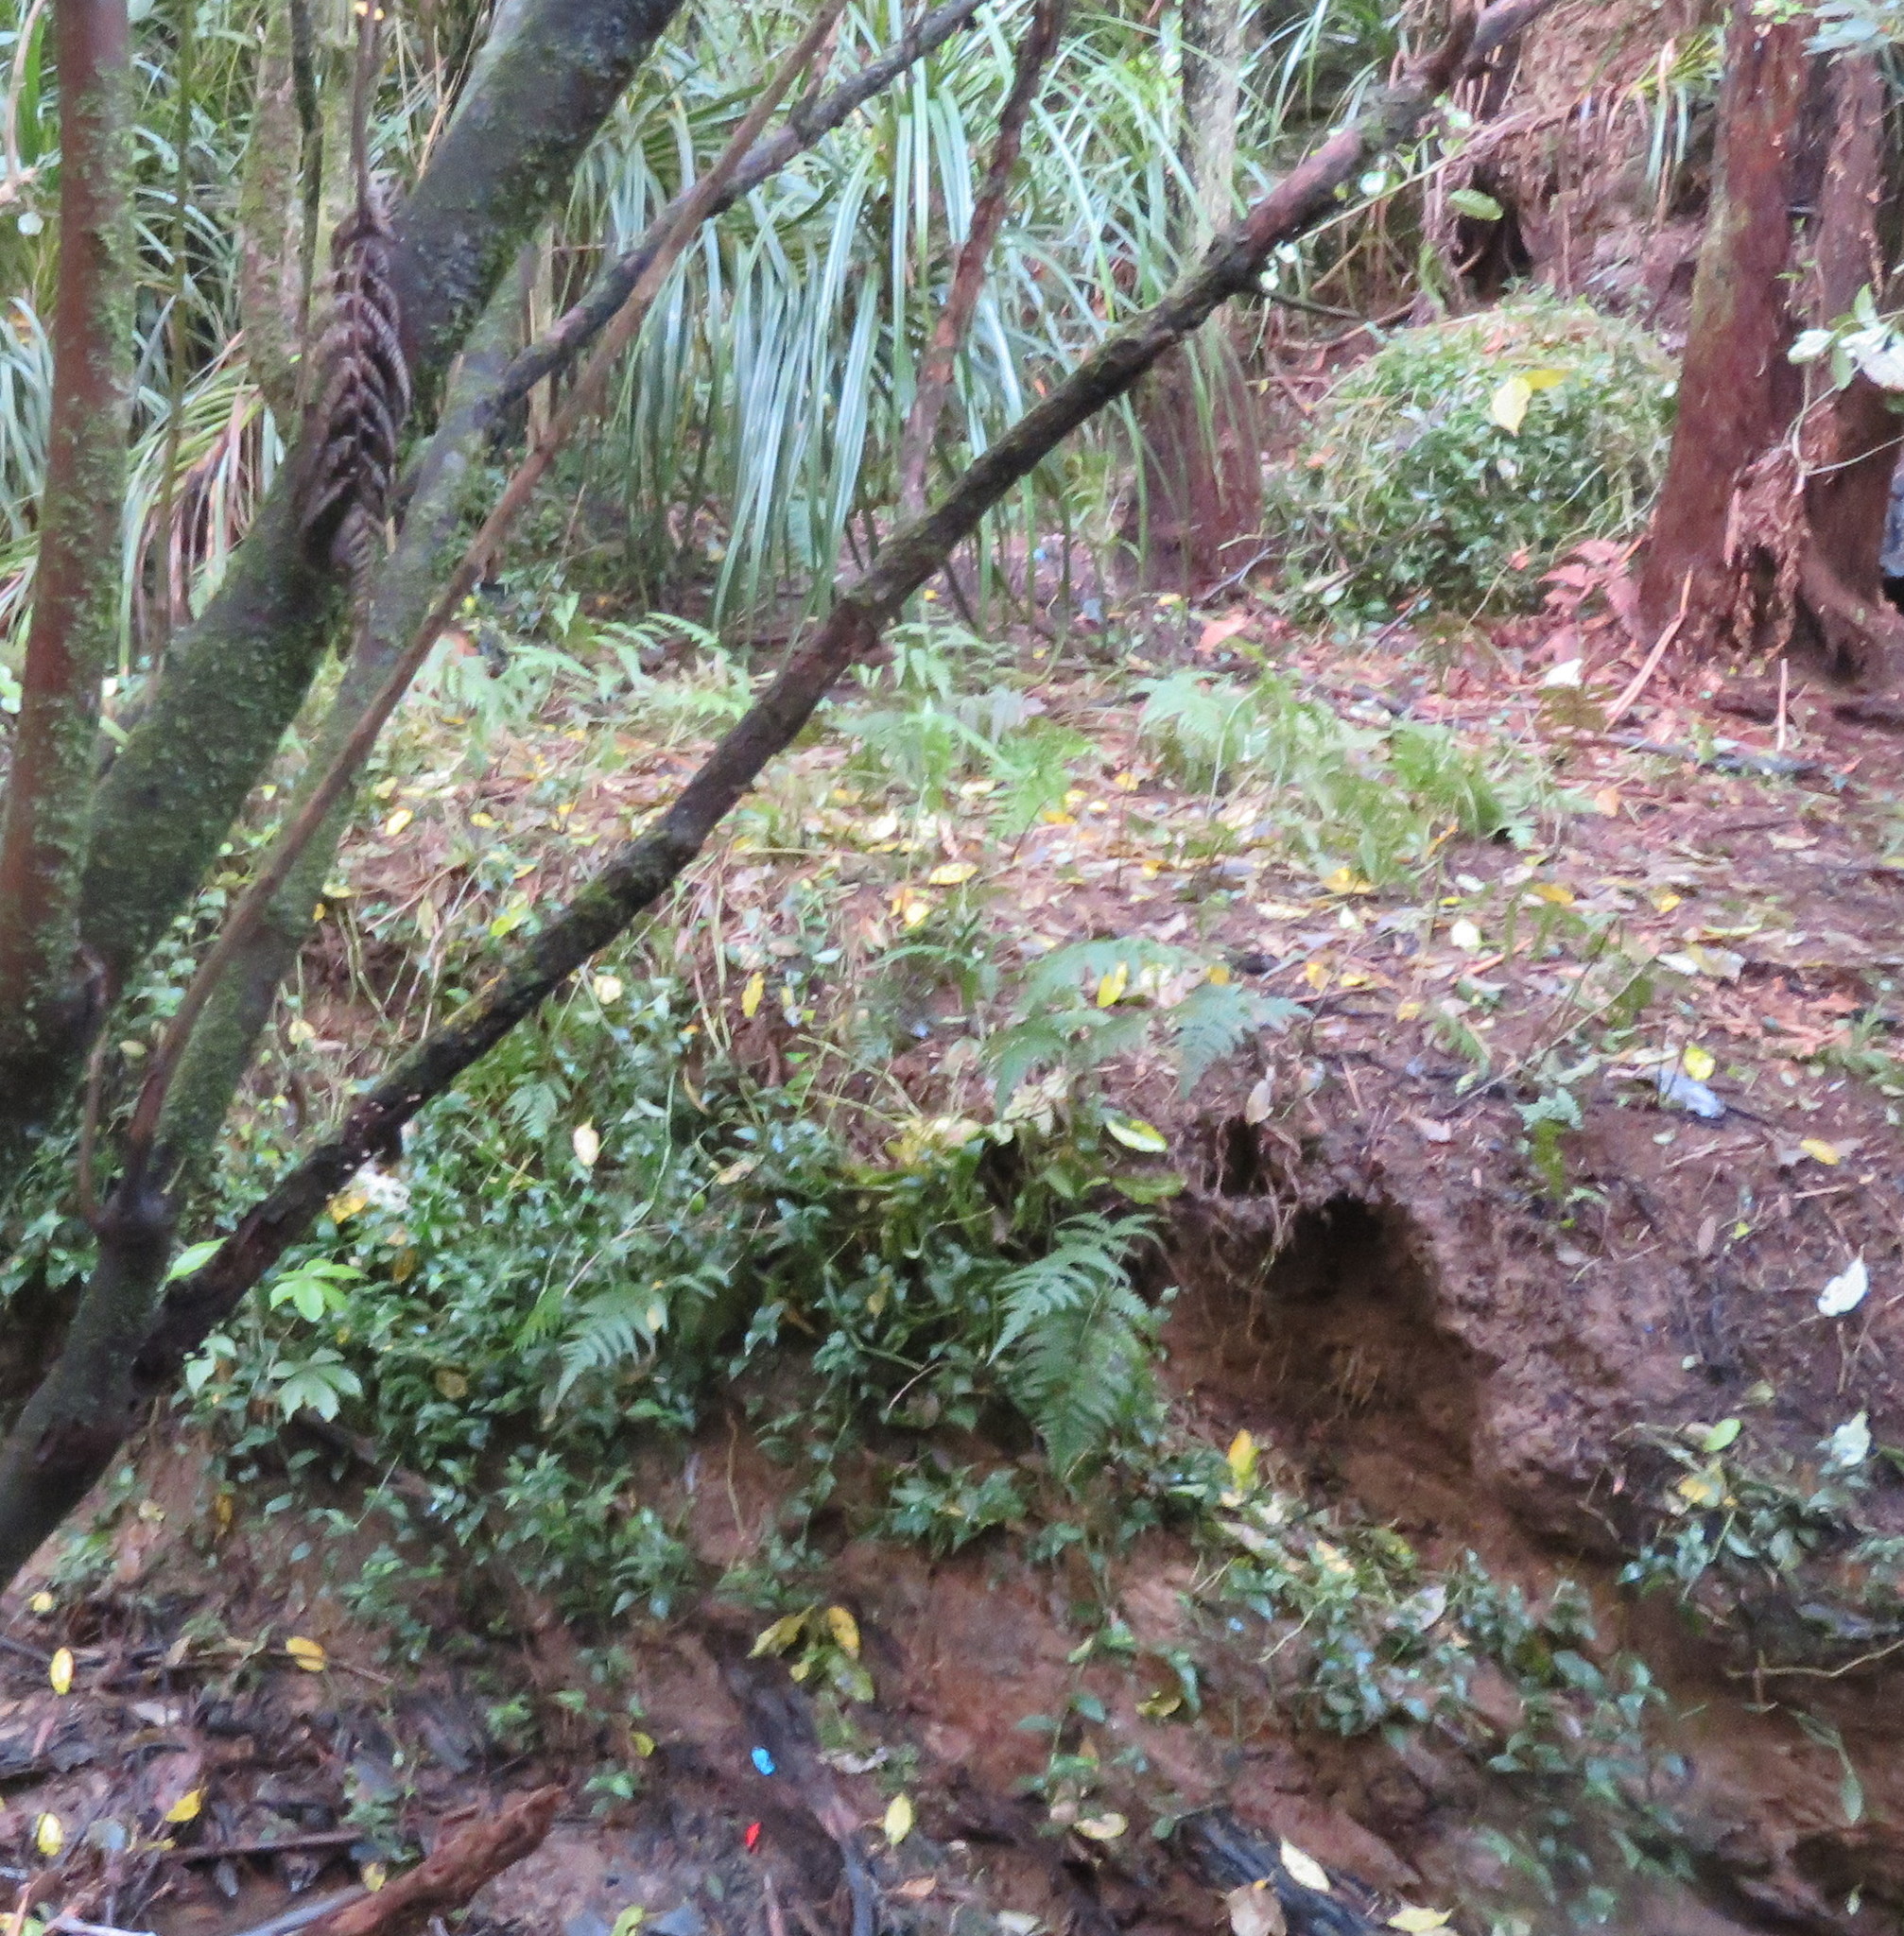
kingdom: Plantae
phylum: Tracheophyta
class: Liliopsida
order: Commelinales
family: Commelinaceae
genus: Tradescantia
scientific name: Tradescantia fluminensis
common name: Wandering-jew
